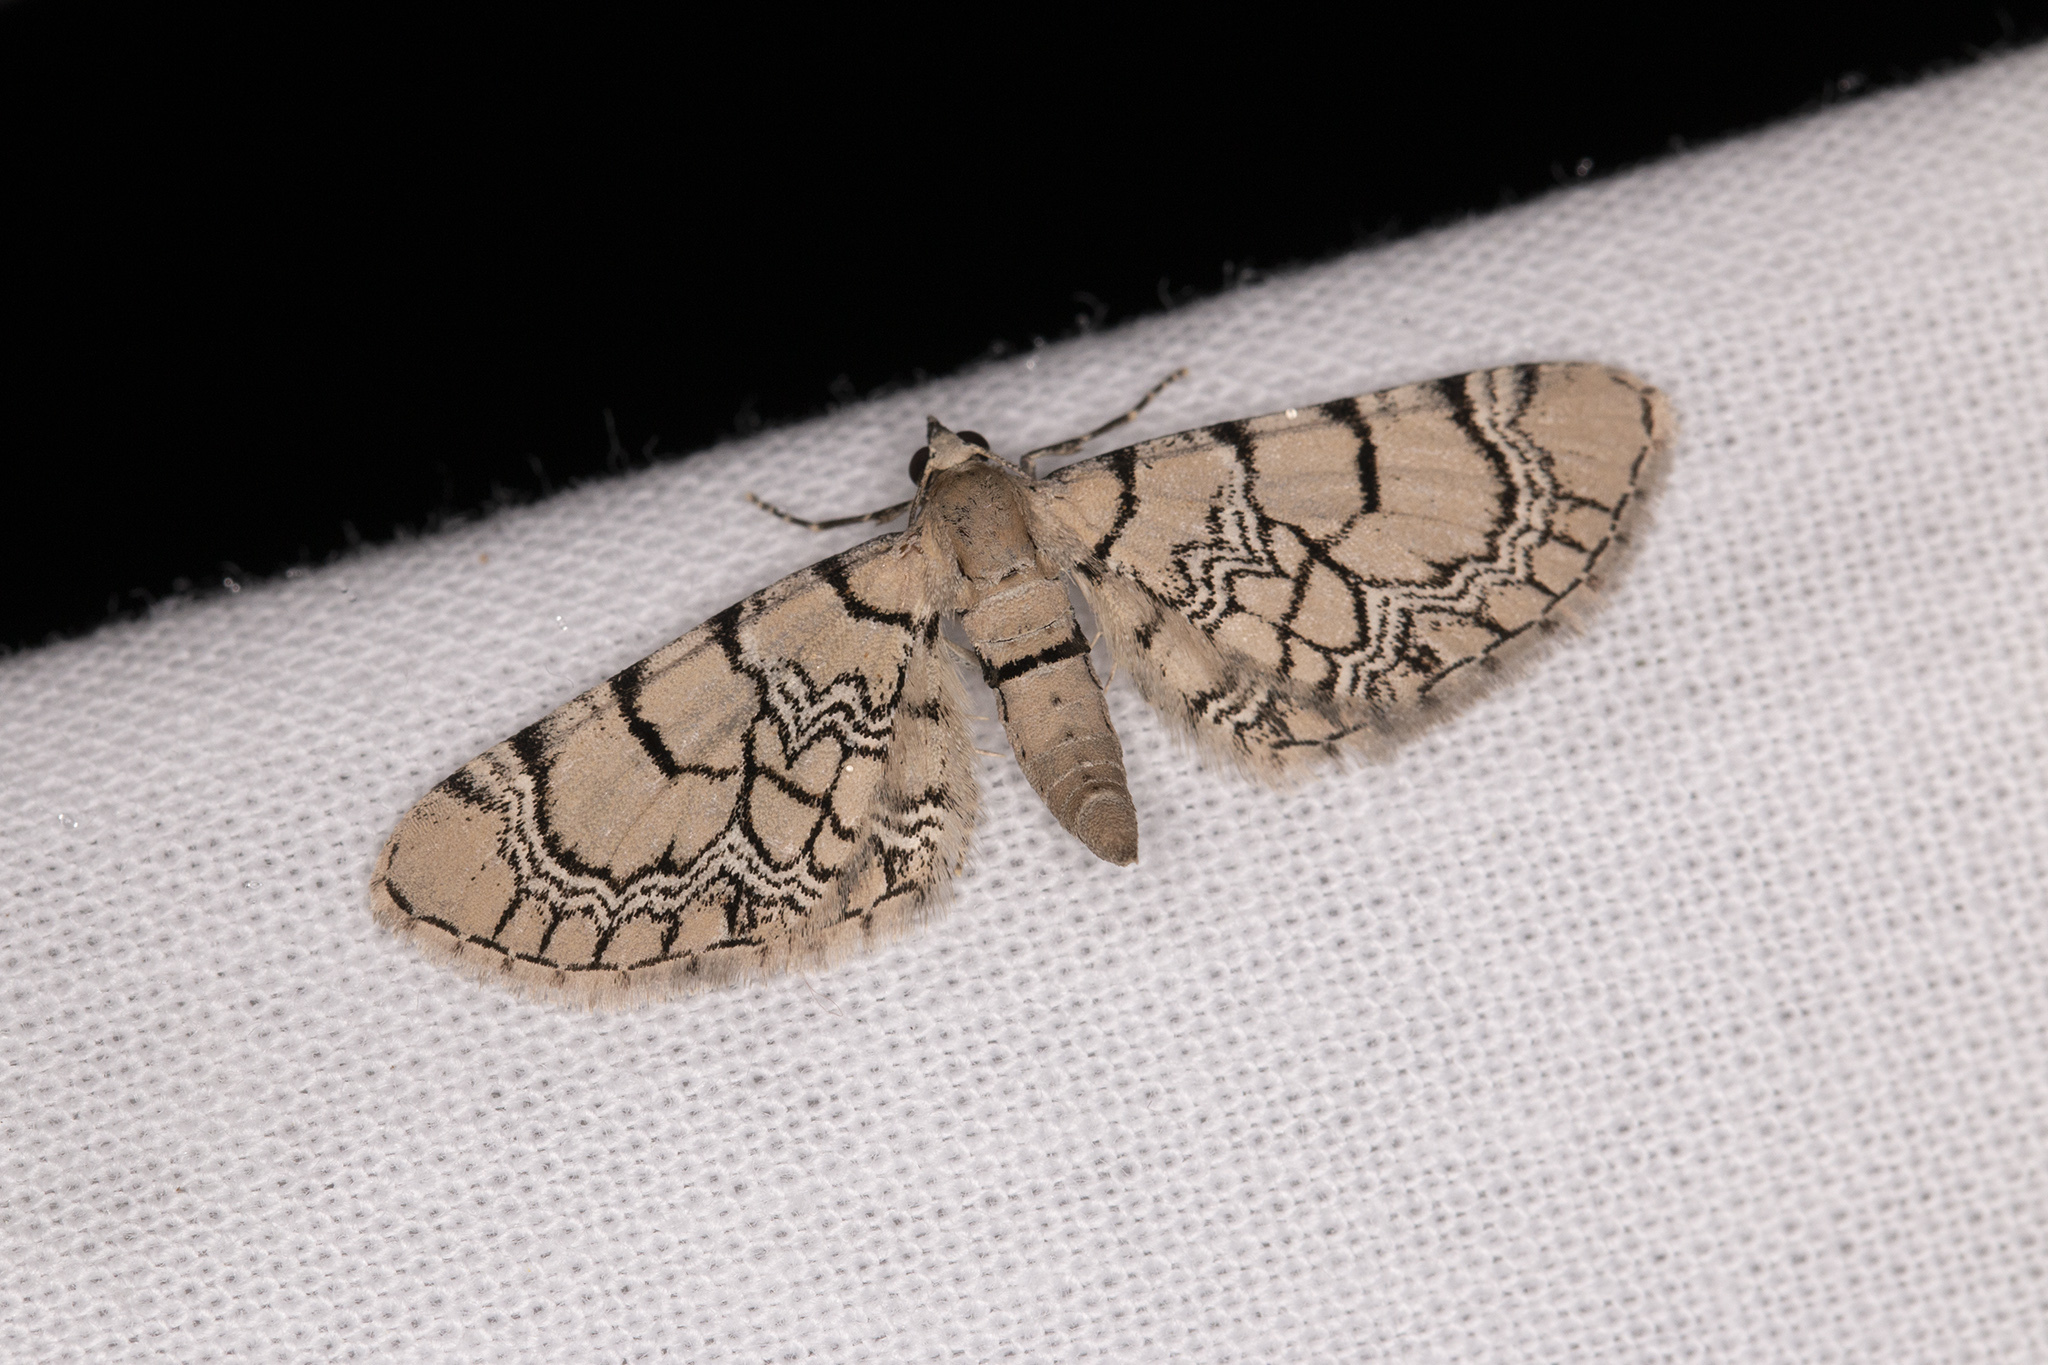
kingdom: Animalia
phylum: Arthropoda
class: Insecta
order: Lepidoptera
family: Geometridae
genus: Eupithecia
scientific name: Eupithecia venosata
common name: Netted pug
